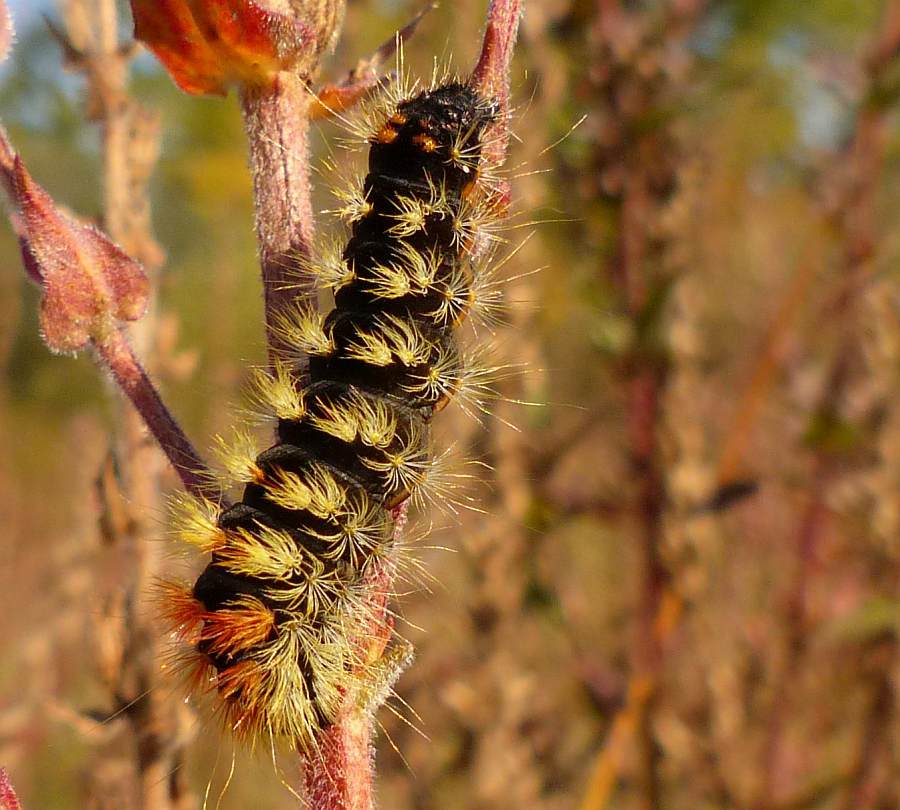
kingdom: Animalia
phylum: Arthropoda
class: Insecta
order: Lepidoptera
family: Noctuidae
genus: Acronicta
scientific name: Acronicta impressa
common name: Impressed dagger
